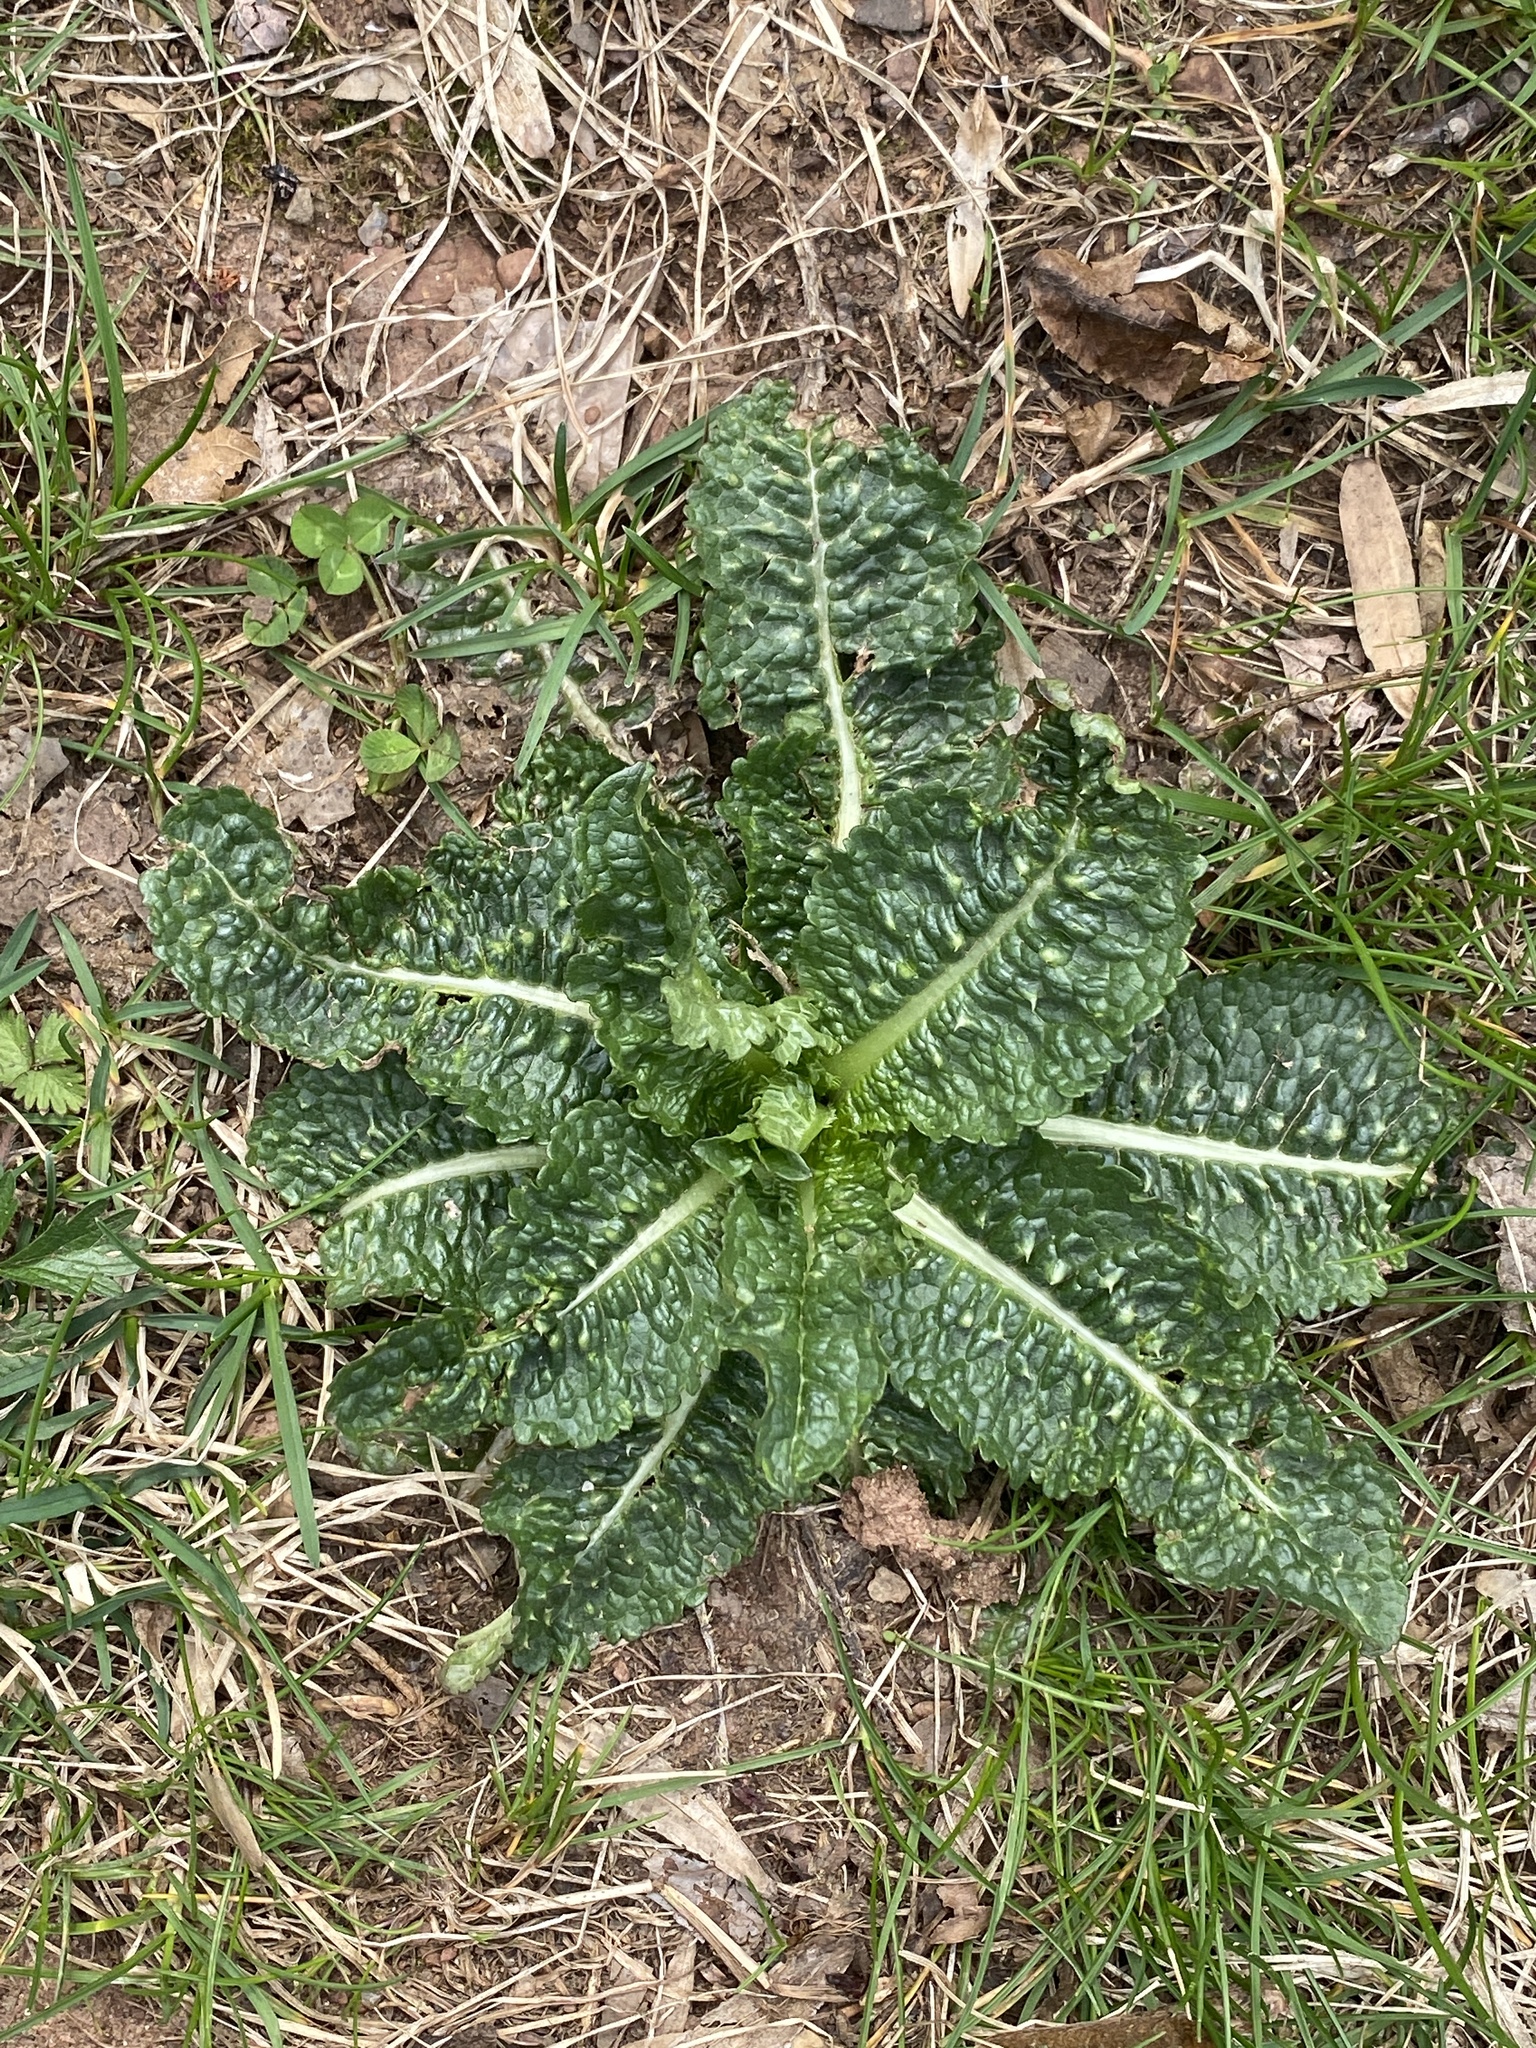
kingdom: Plantae
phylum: Tracheophyta
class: Magnoliopsida
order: Dipsacales
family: Caprifoliaceae
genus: Dipsacus
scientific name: Dipsacus fullonum
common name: Teasel
